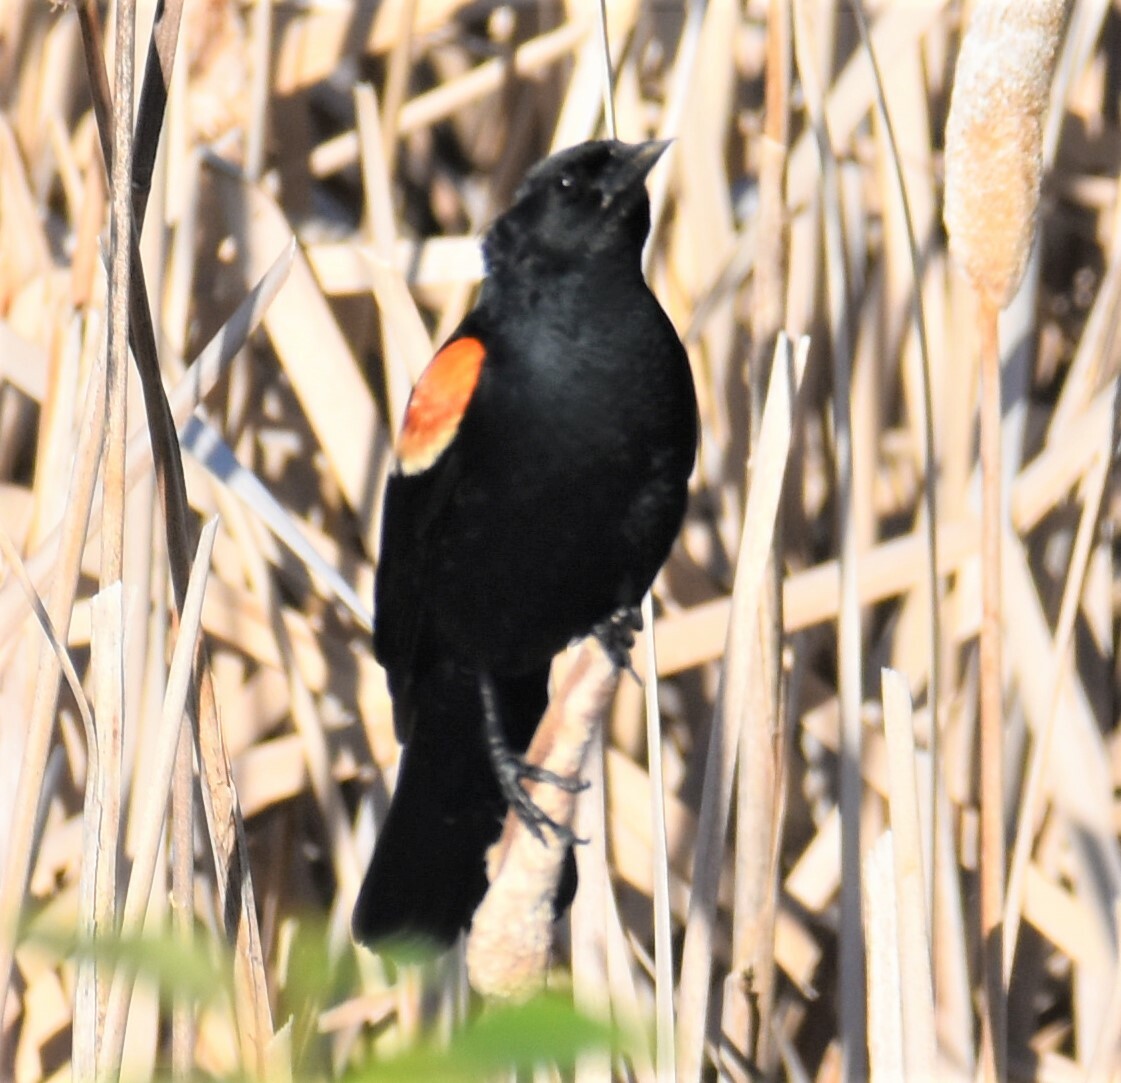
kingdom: Animalia
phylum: Chordata
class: Aves
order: Passeriformes
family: Icteridae
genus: Agelaius
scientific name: Agelaius phoeniceus
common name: Red-winged blackbird
